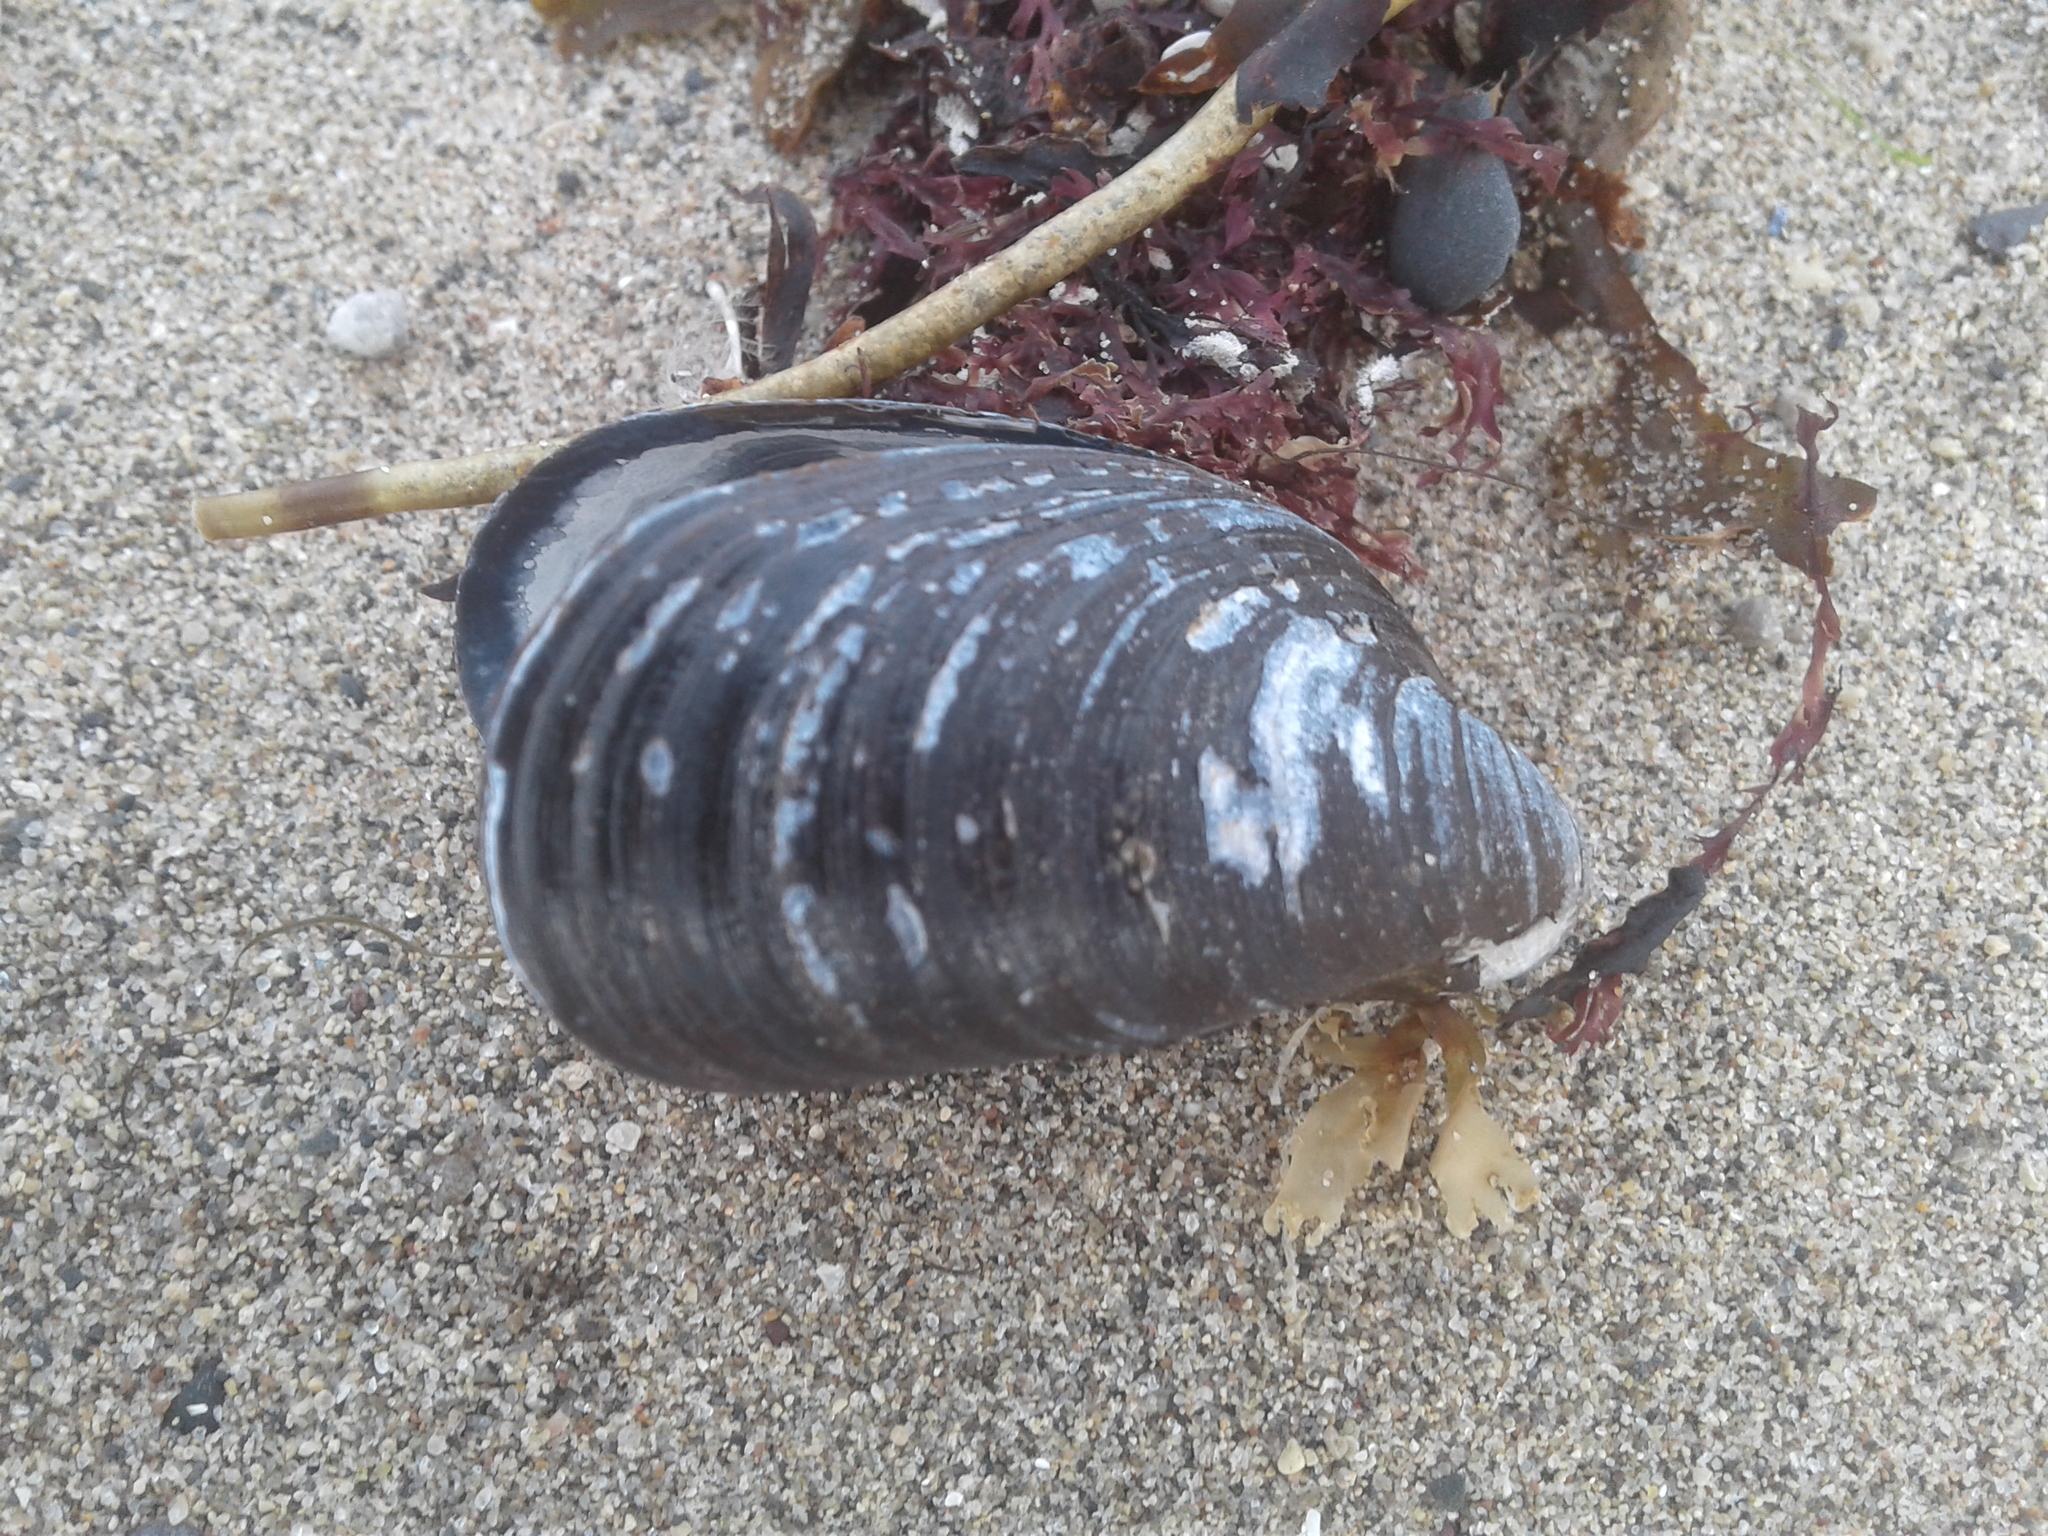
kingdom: Animalia
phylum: Mollusca
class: Bivalvia
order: Mytilida
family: Mytilidae
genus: Mytilus
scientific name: Mytilus edulis
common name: Blue mussel
